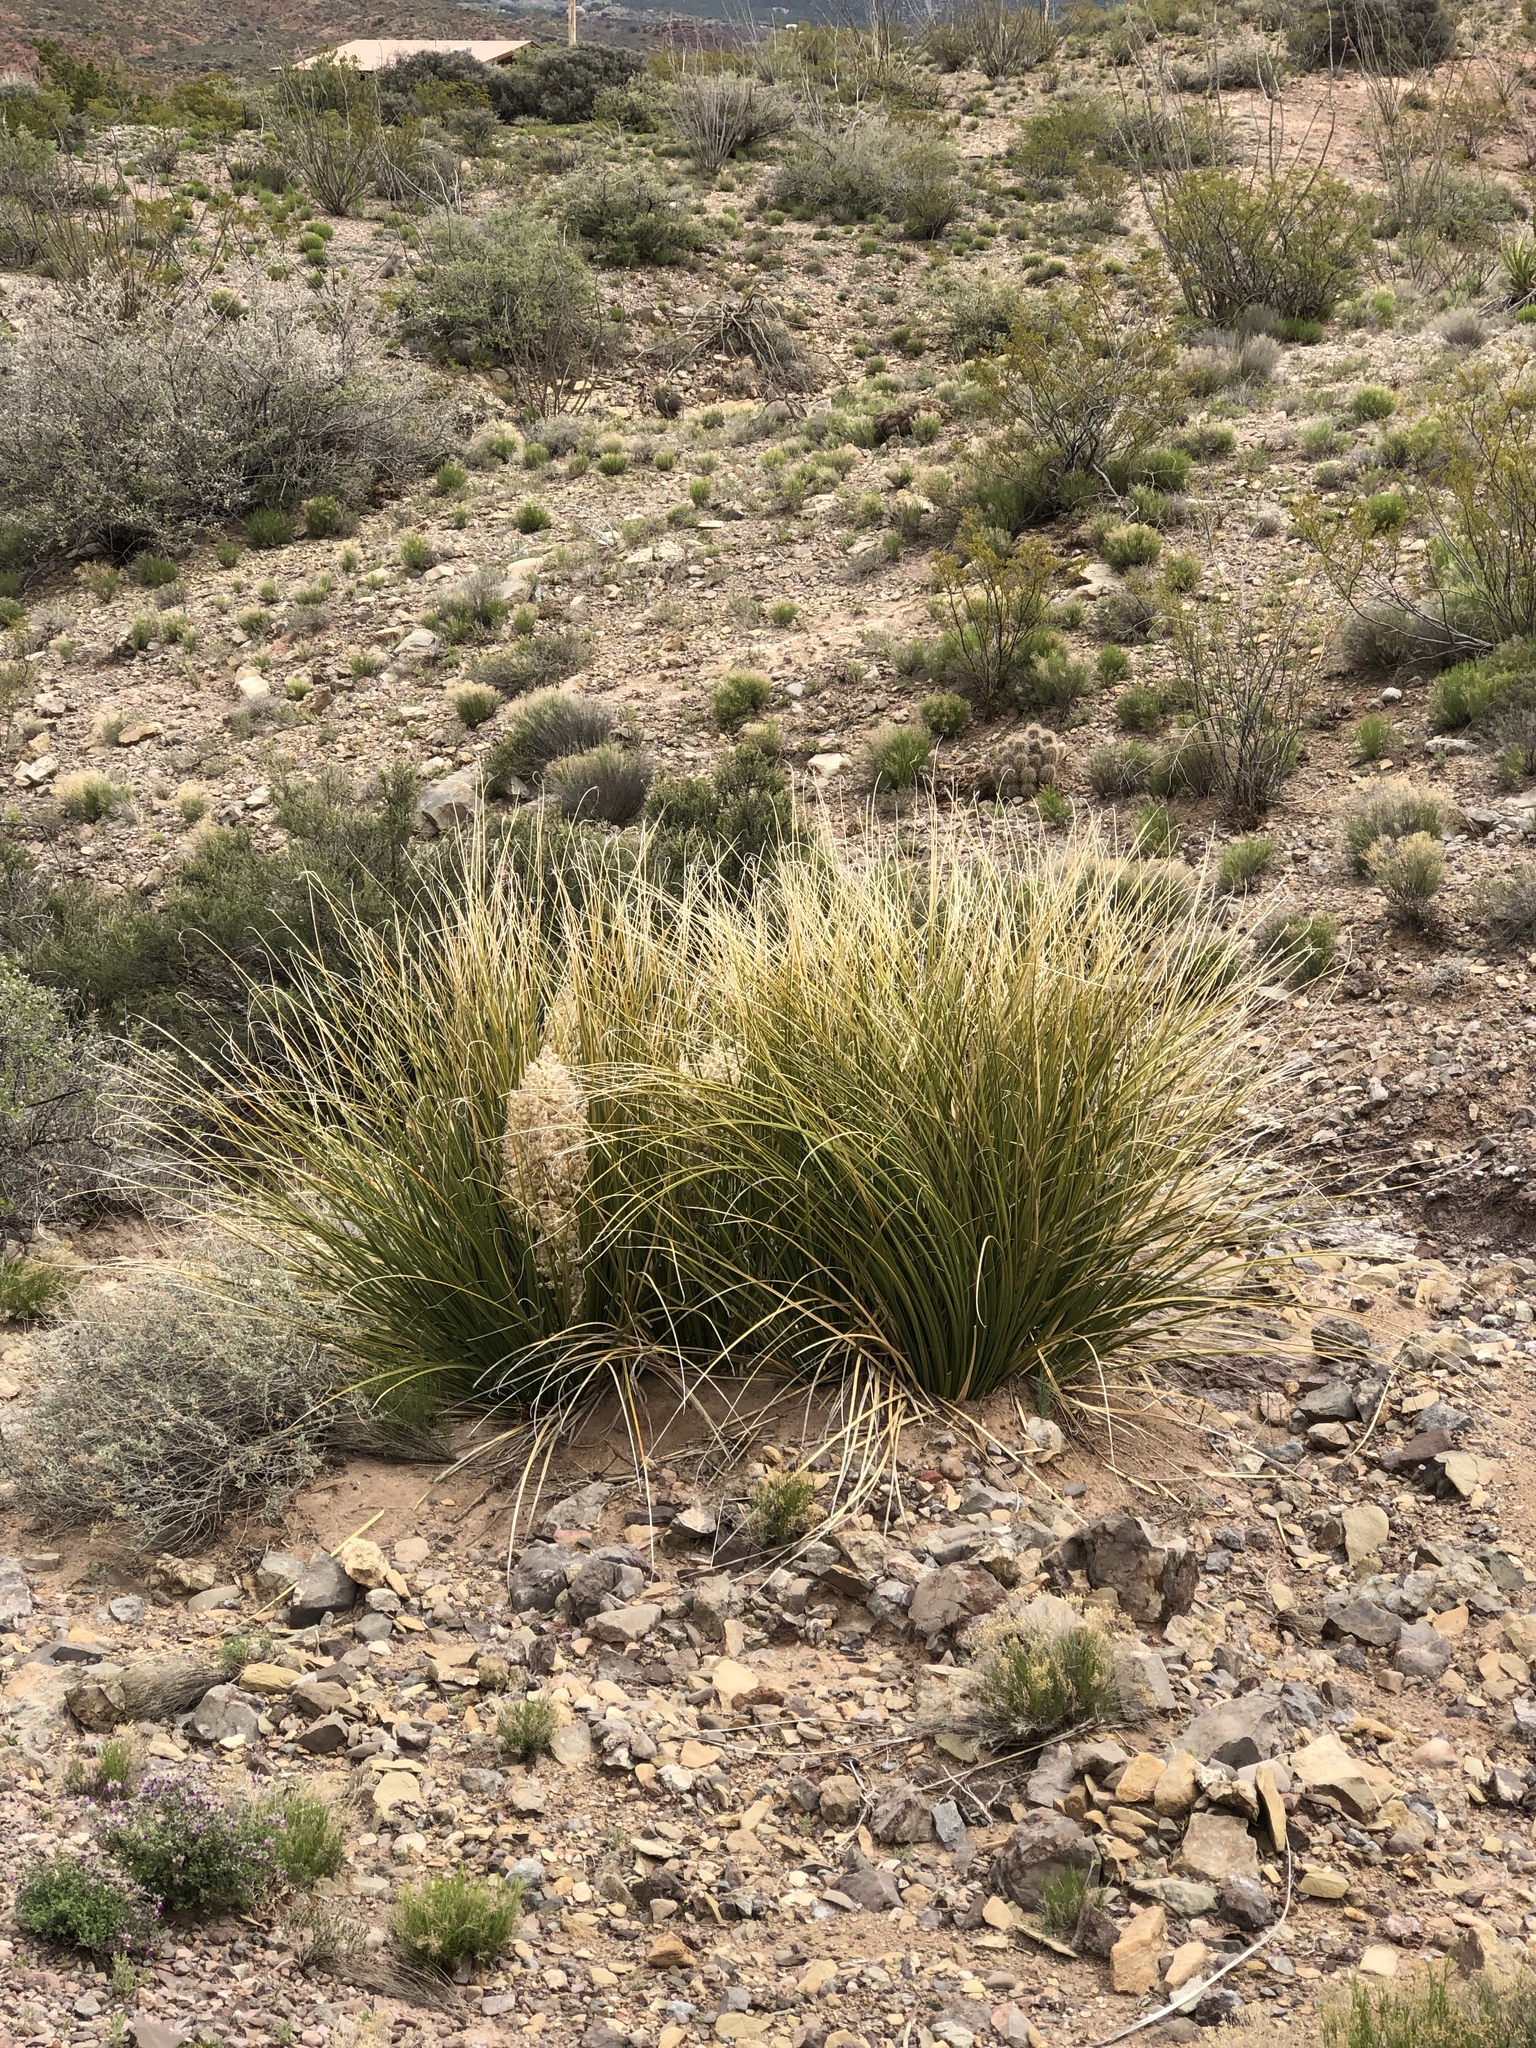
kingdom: Plantae
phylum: Tracheophyta
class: Liliopsida
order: Asparagales
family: Asparagaceae
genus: Nolina
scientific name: Nolina texana
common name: Texas sacahuiste
